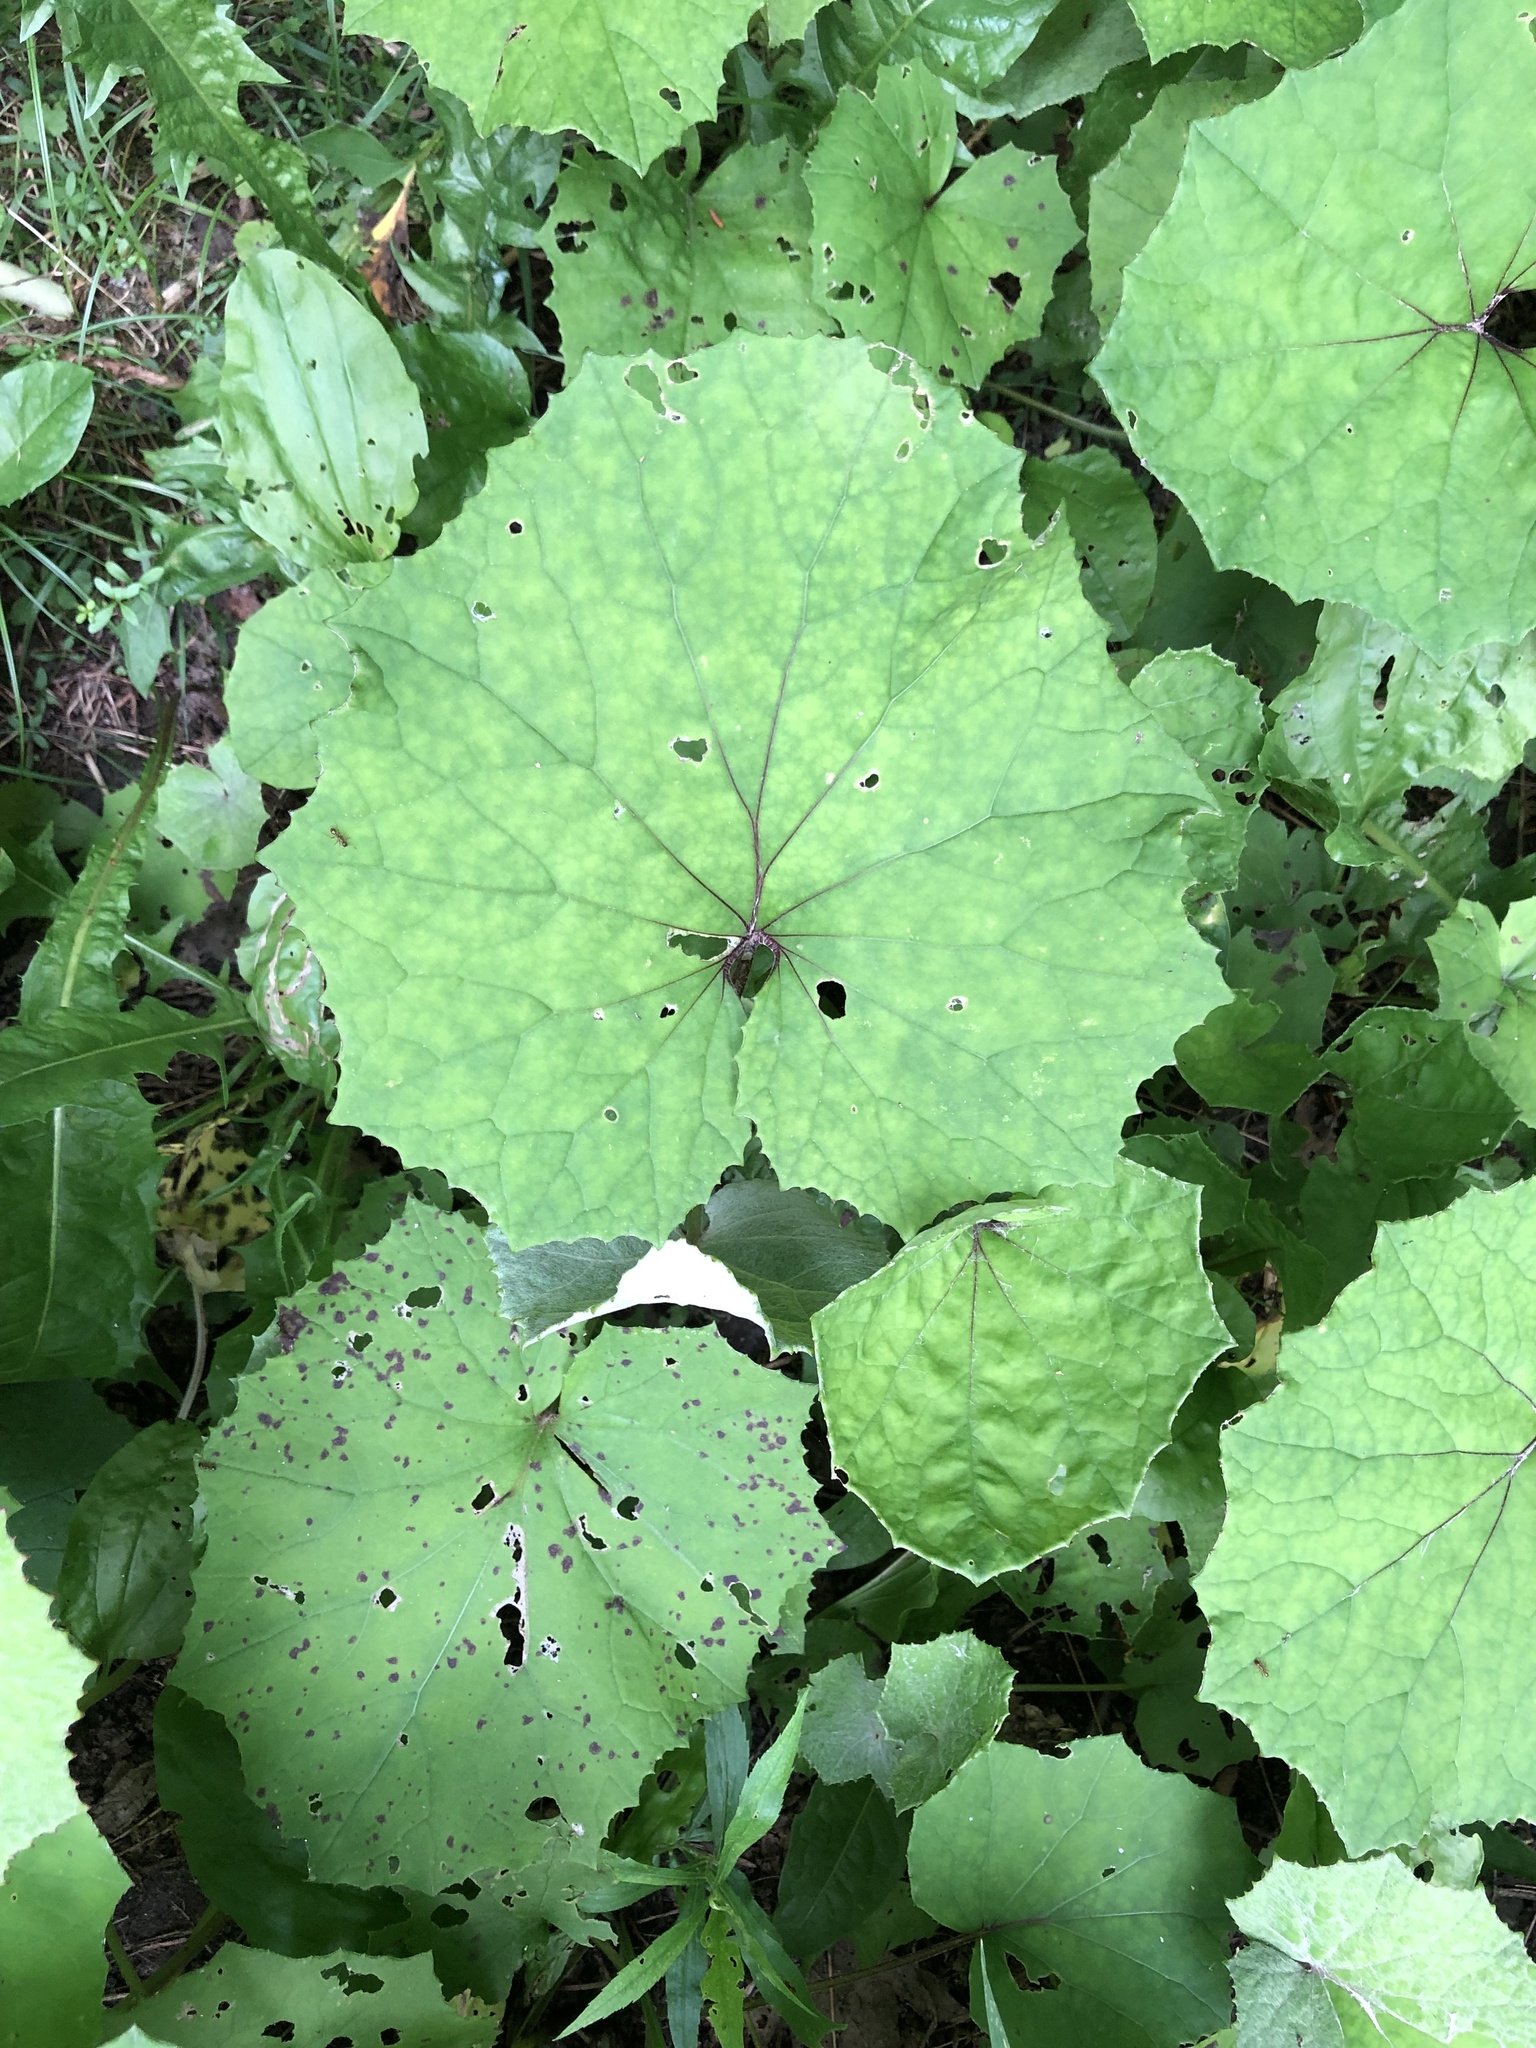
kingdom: Plantae
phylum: Tracheophyta
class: Magnoliopsida
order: Asterales
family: Asteraceae
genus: Tussilago
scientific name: Tussilago farfara
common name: Coltsfoot
